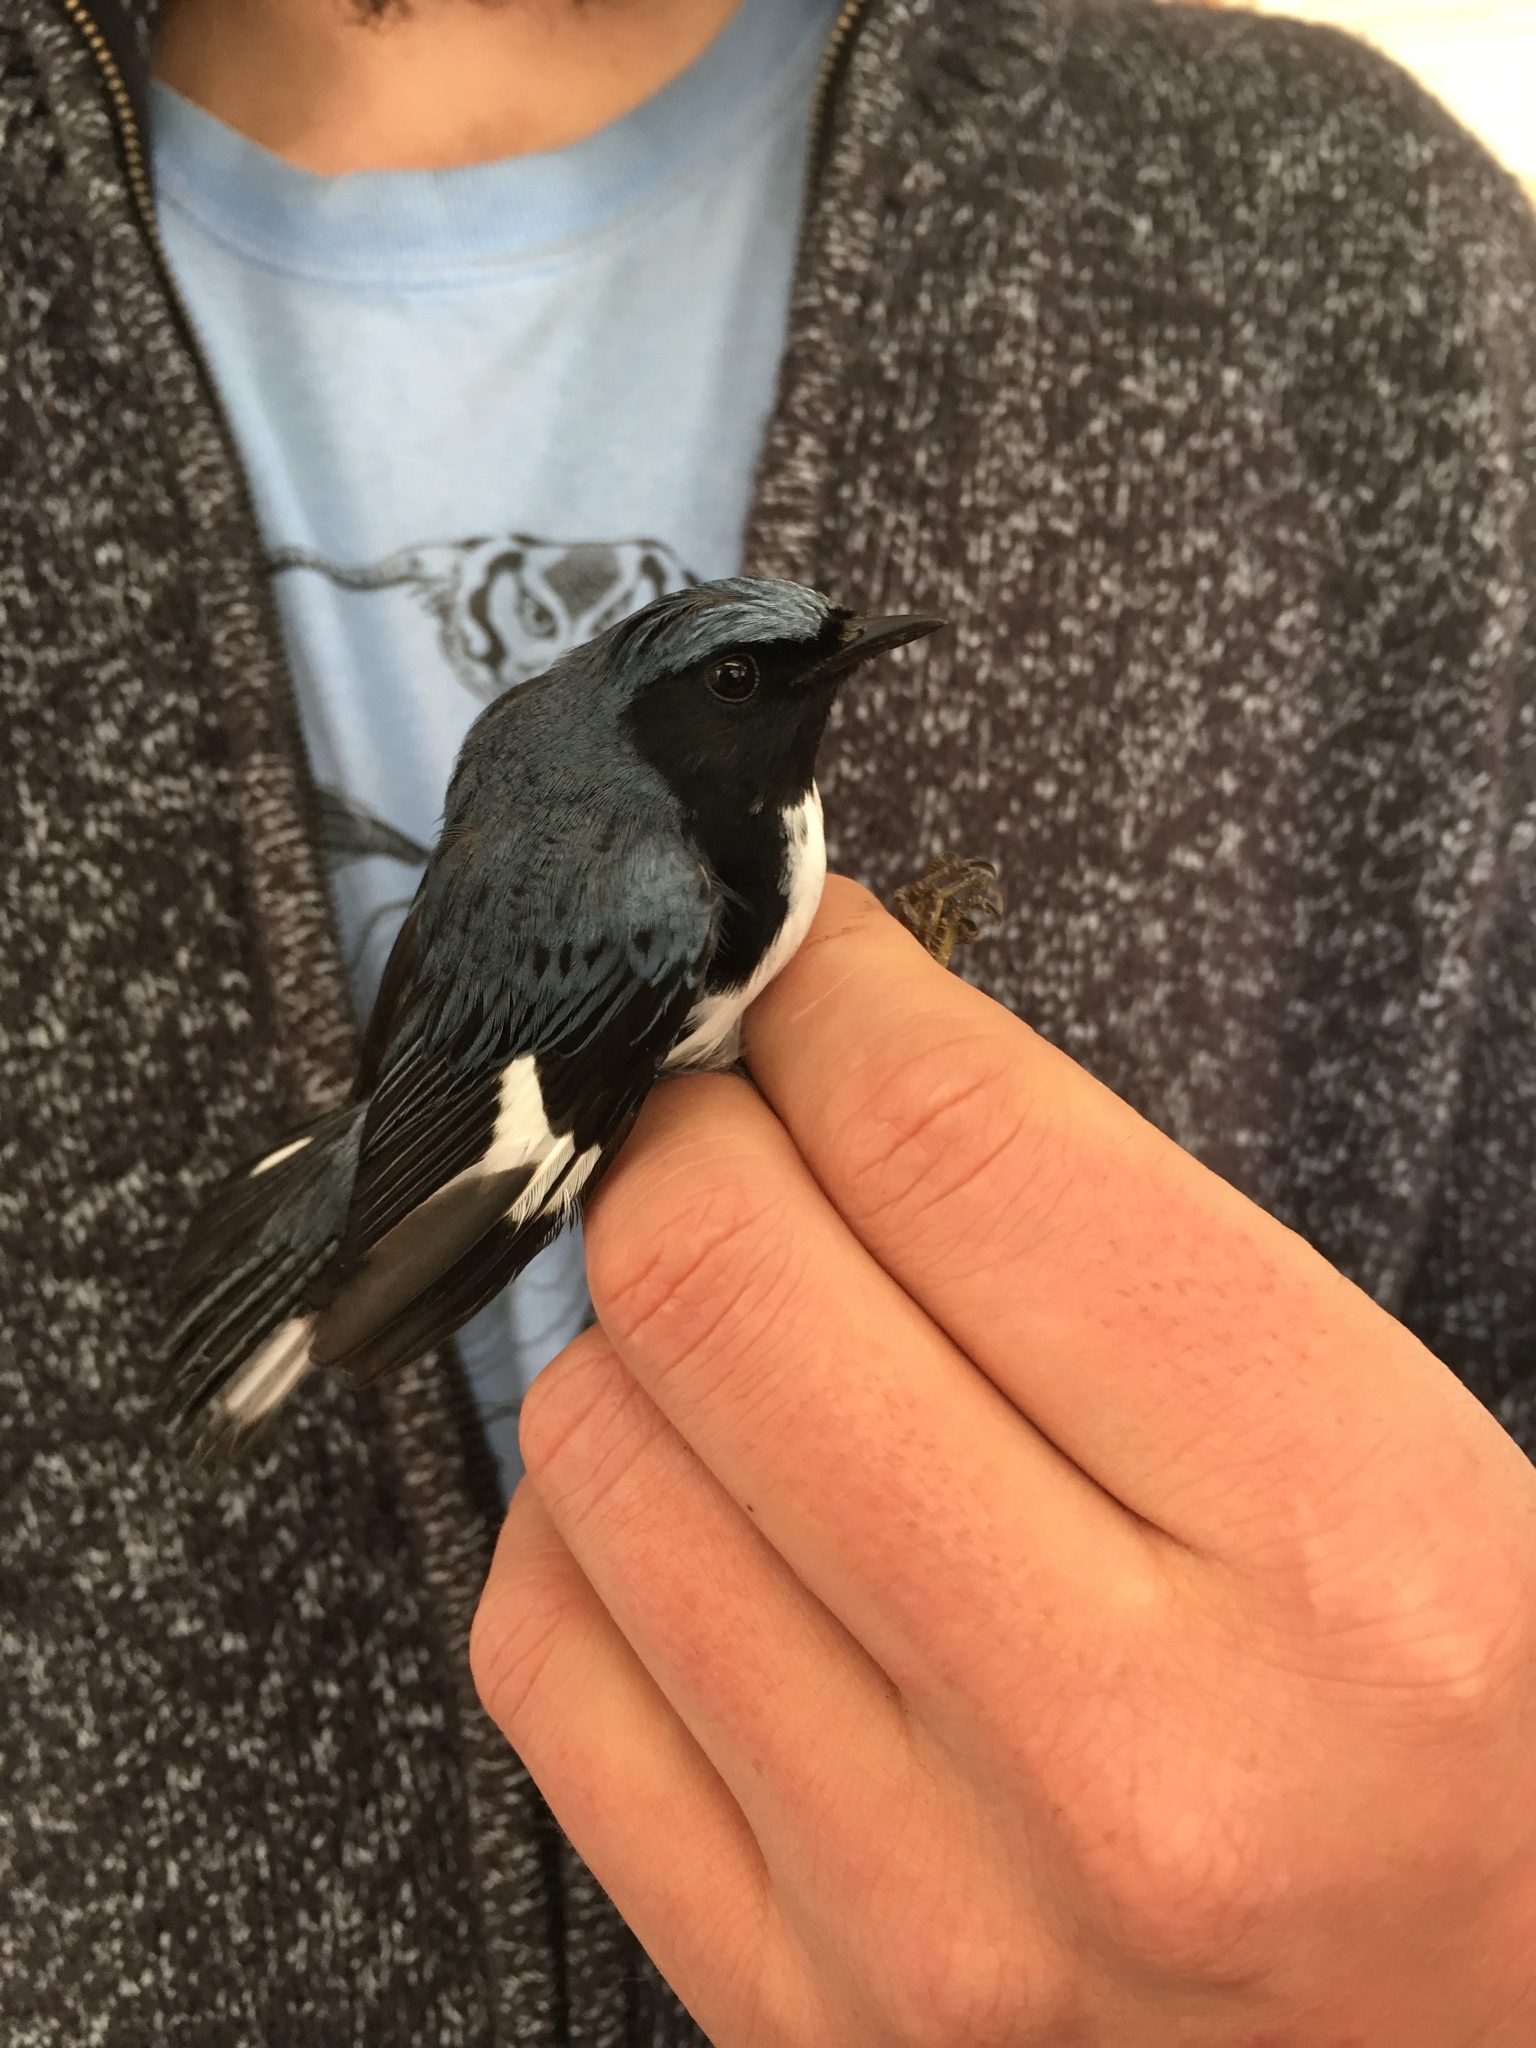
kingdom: Animalia
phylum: Chordata
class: Aves
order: Passeriformes
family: Parulidae
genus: Setophaga
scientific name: Setophaga caerulescens
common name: Black-throated blue warbler
